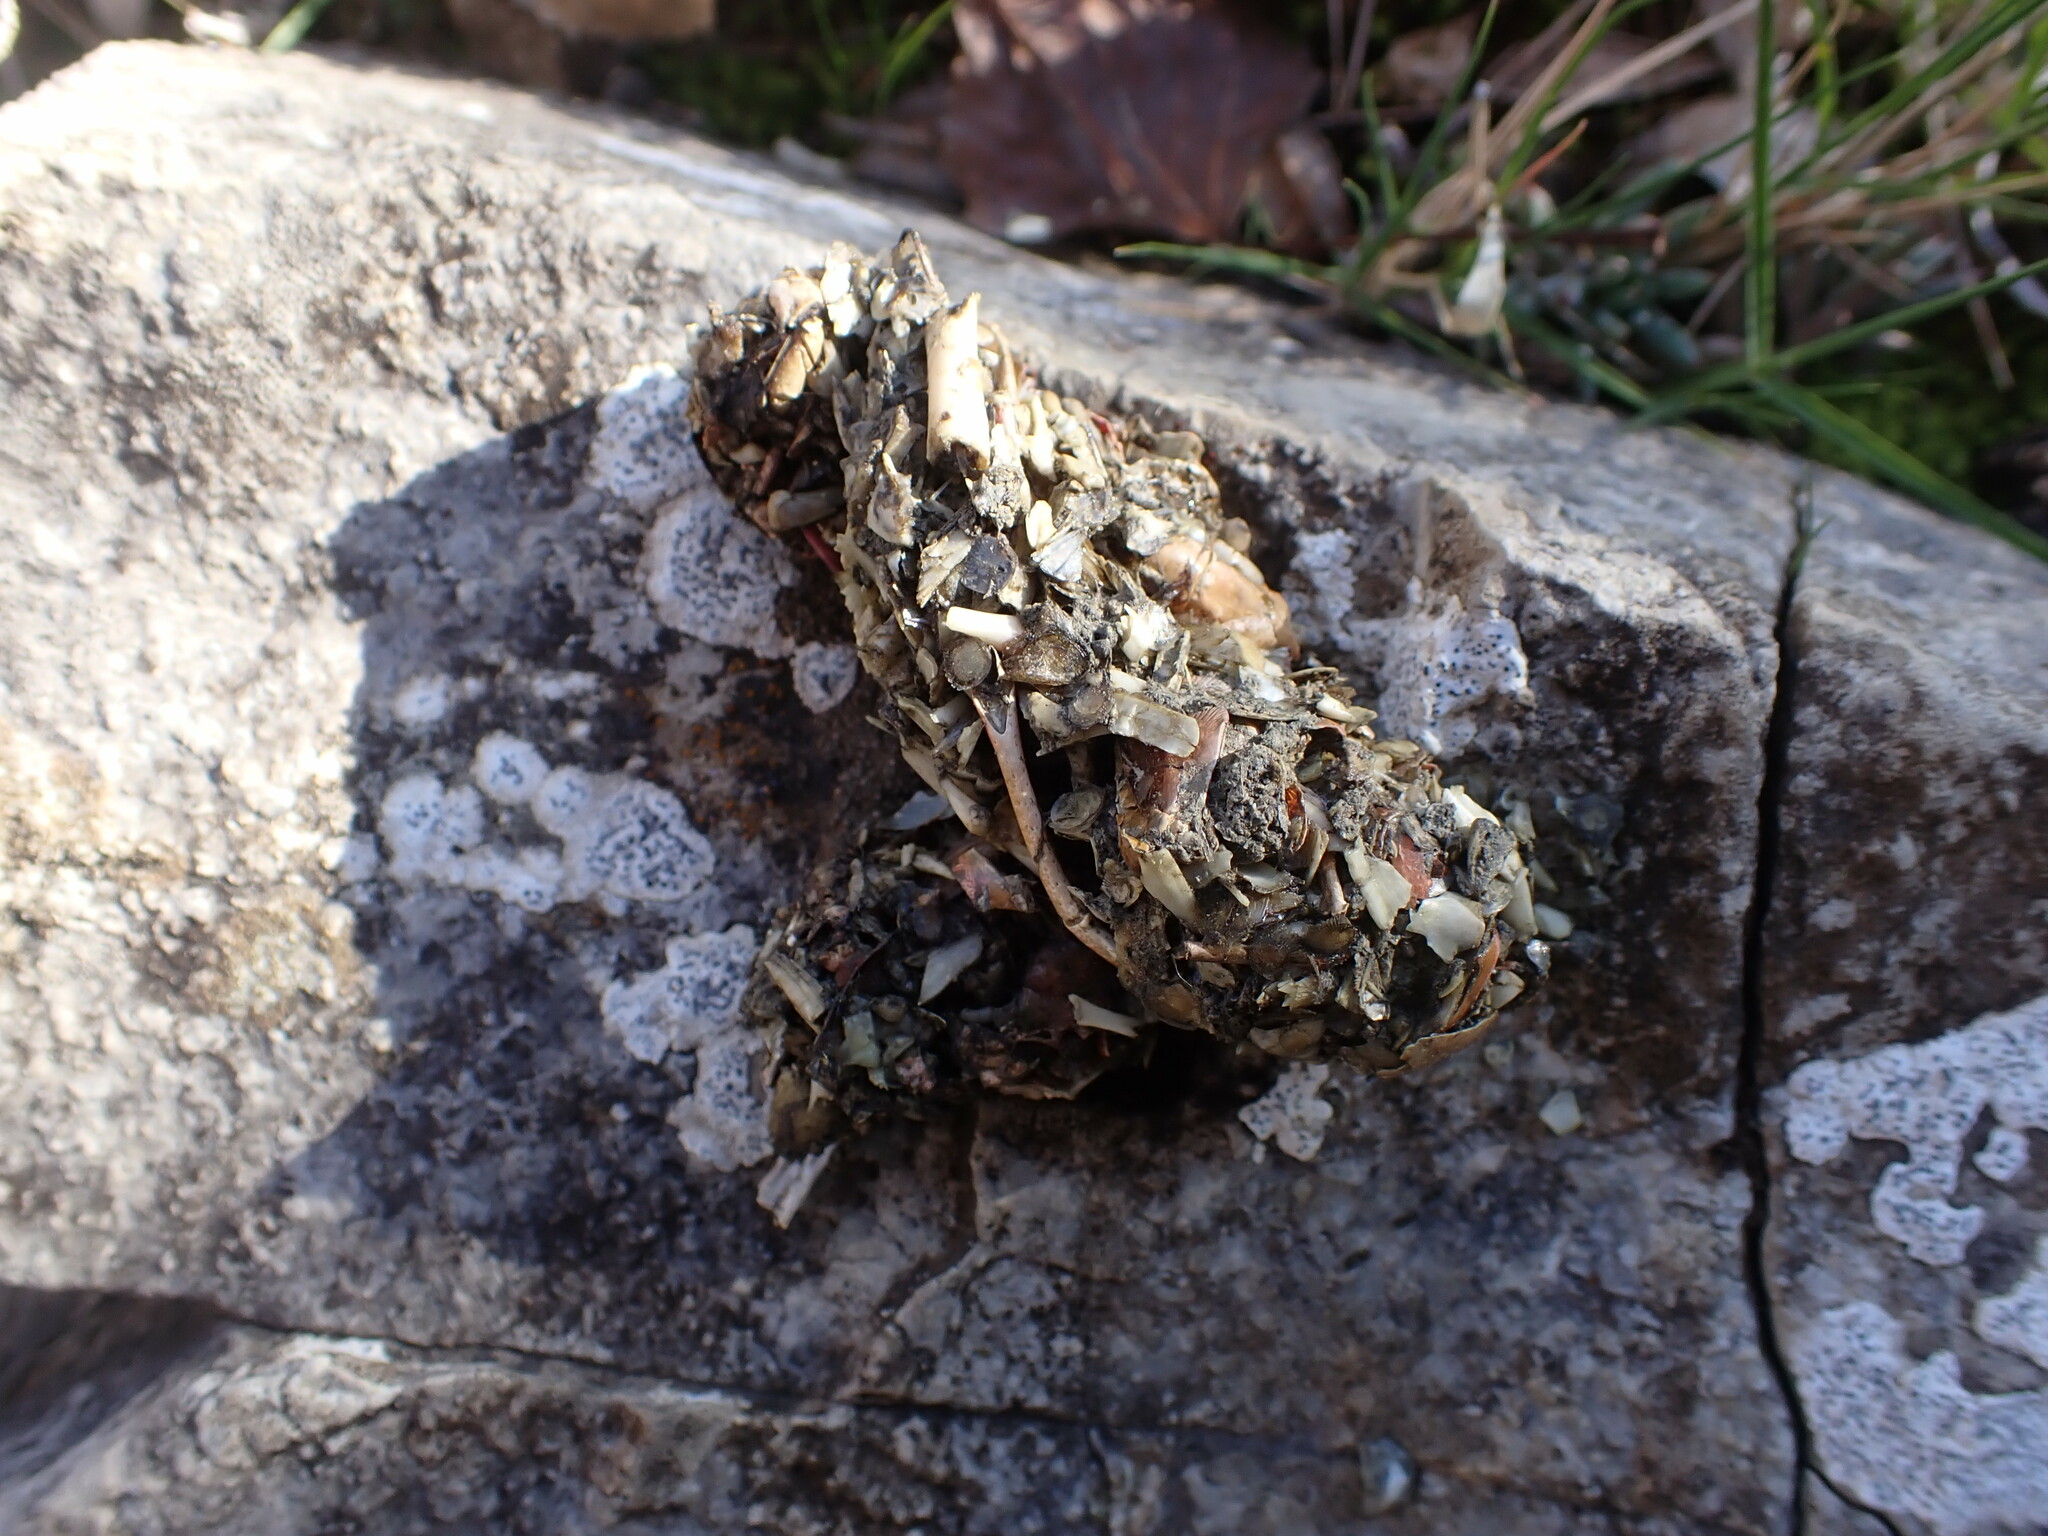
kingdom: Animalia
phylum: Chordata
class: Mammalia
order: Carnivora
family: Mustelidae
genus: Lutra
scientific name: Lutra lutra
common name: European otter
